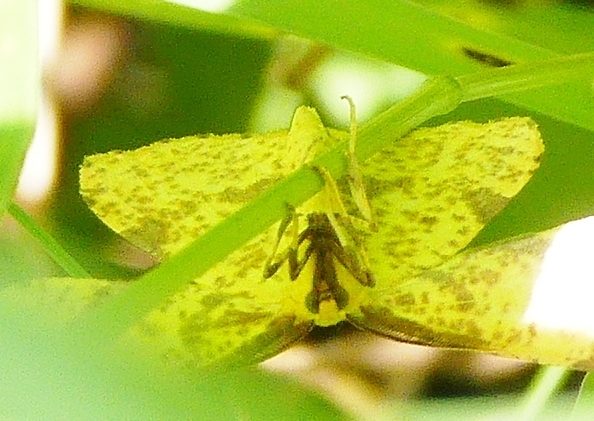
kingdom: Animalia
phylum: Arthropoda
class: Insecta
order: Lepidoptera
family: Geometridae
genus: Xanthotype
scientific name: Xanthotype
